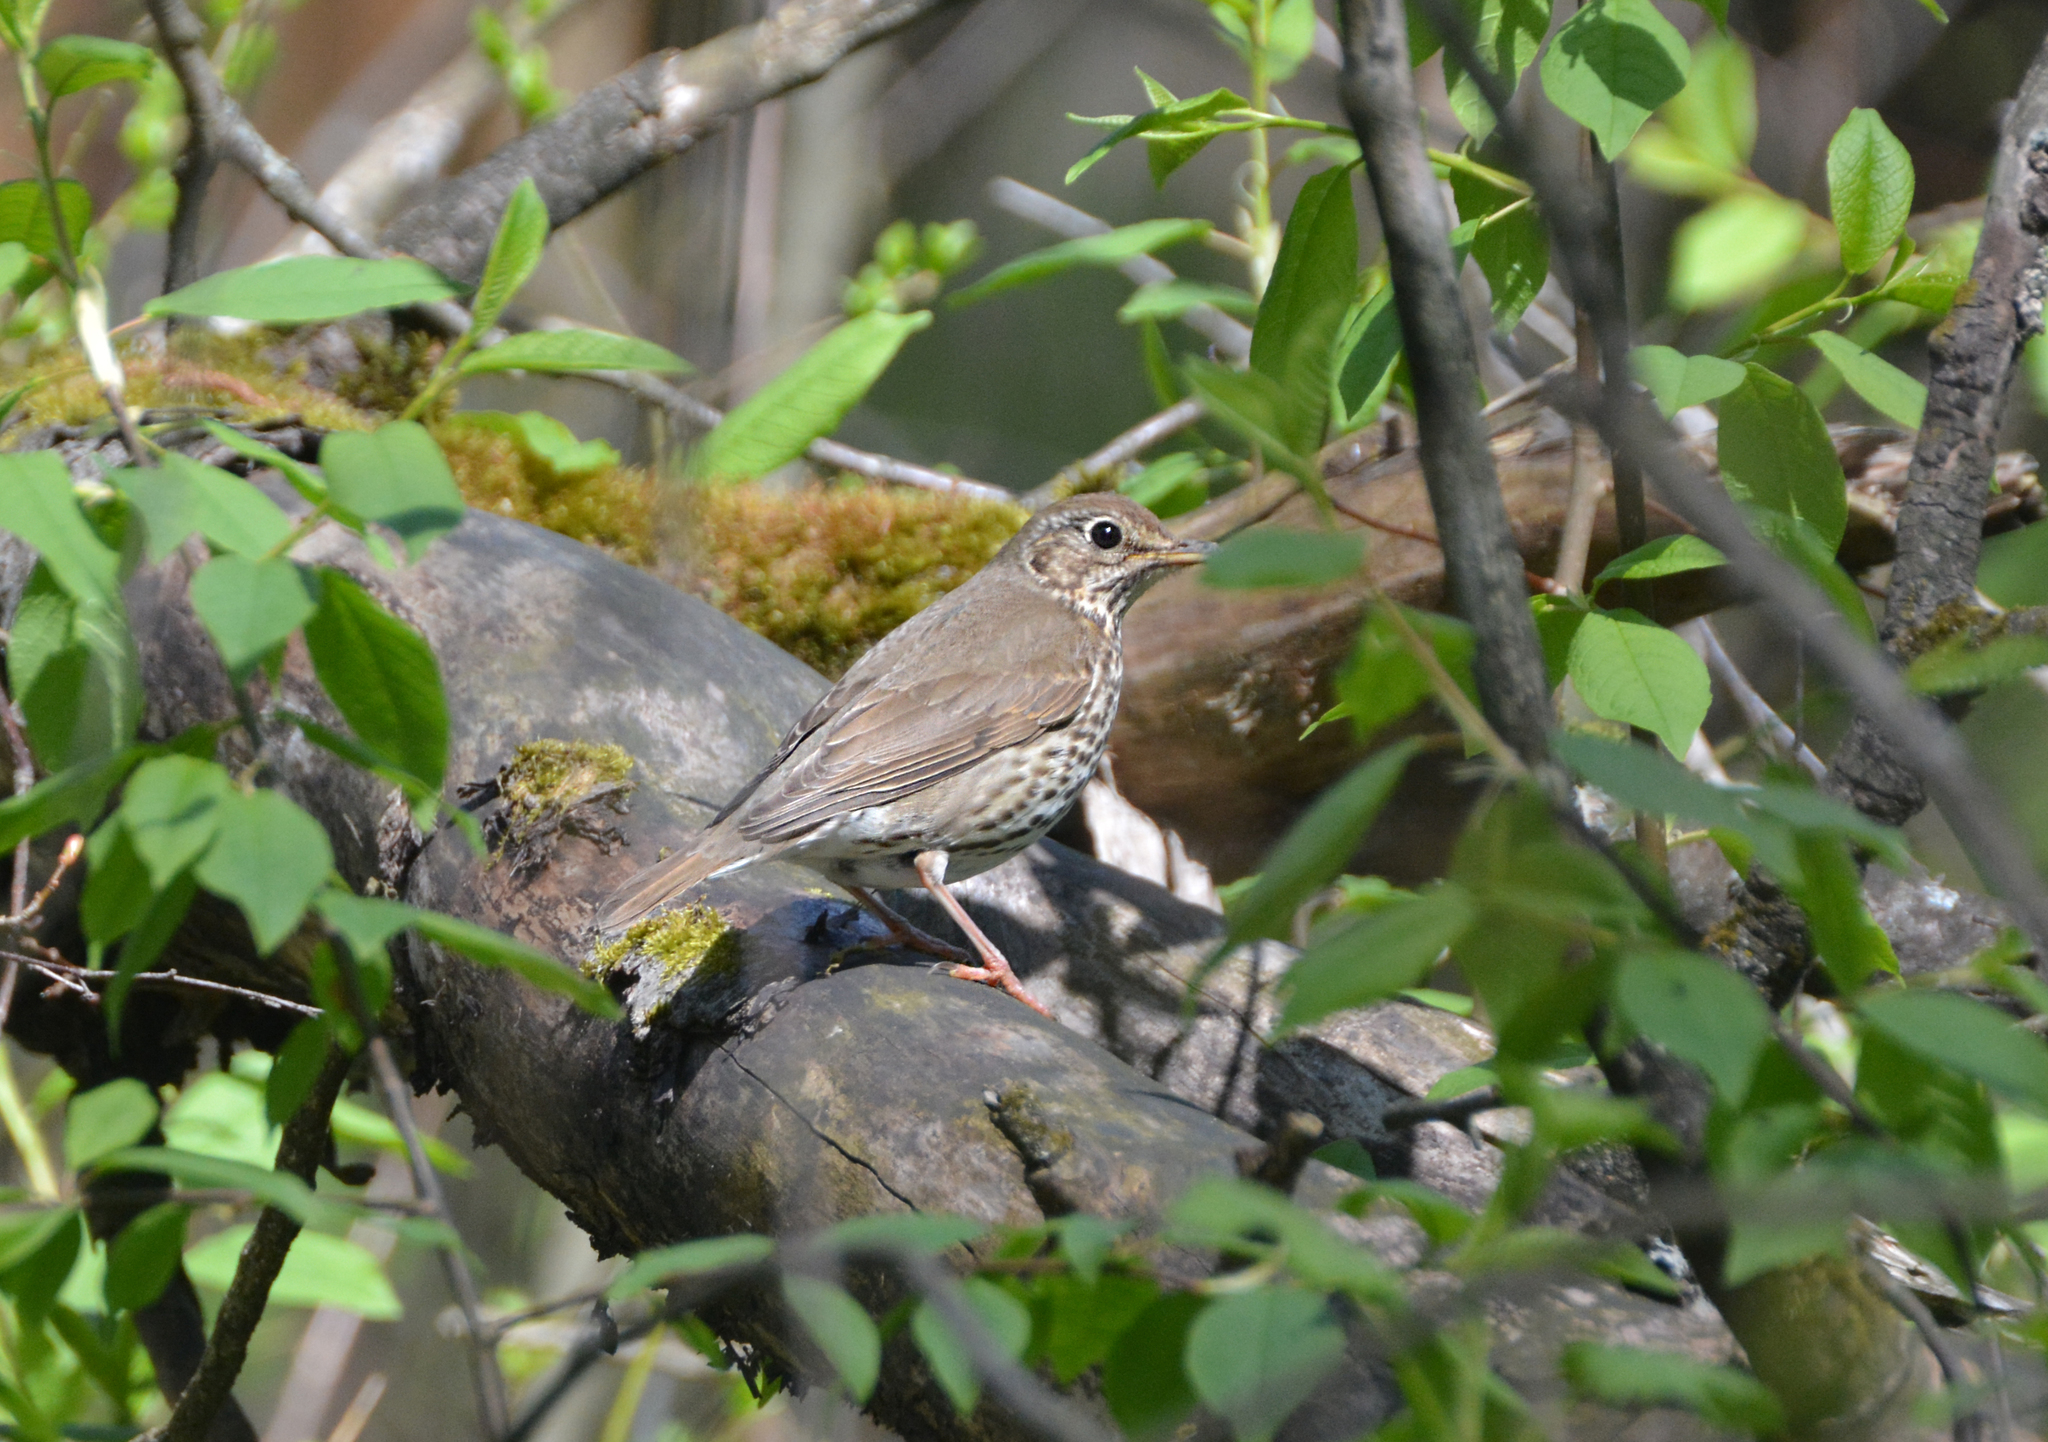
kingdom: Animalia
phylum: Chordata
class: Aves
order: Passeriformes
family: Turdidae
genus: Turdus
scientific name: Turdus philomelos
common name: Song thrush
